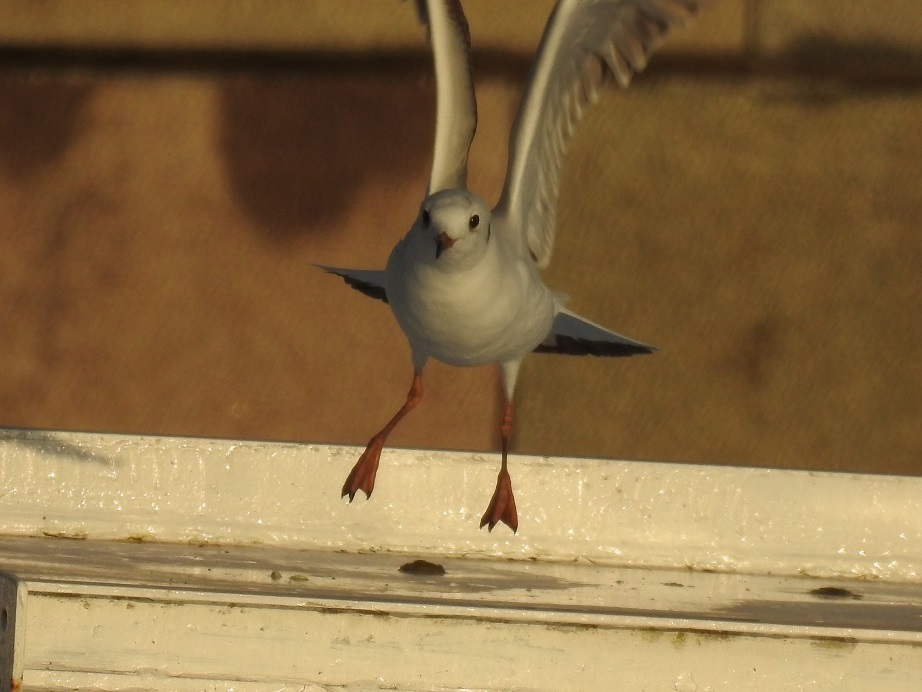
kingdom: Animalia
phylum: Chordata
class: Aves
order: Charadriiformes
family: Laridae
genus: Chroicocephalus
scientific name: Chroicocephalus ridibundus
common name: Black-headed gull
